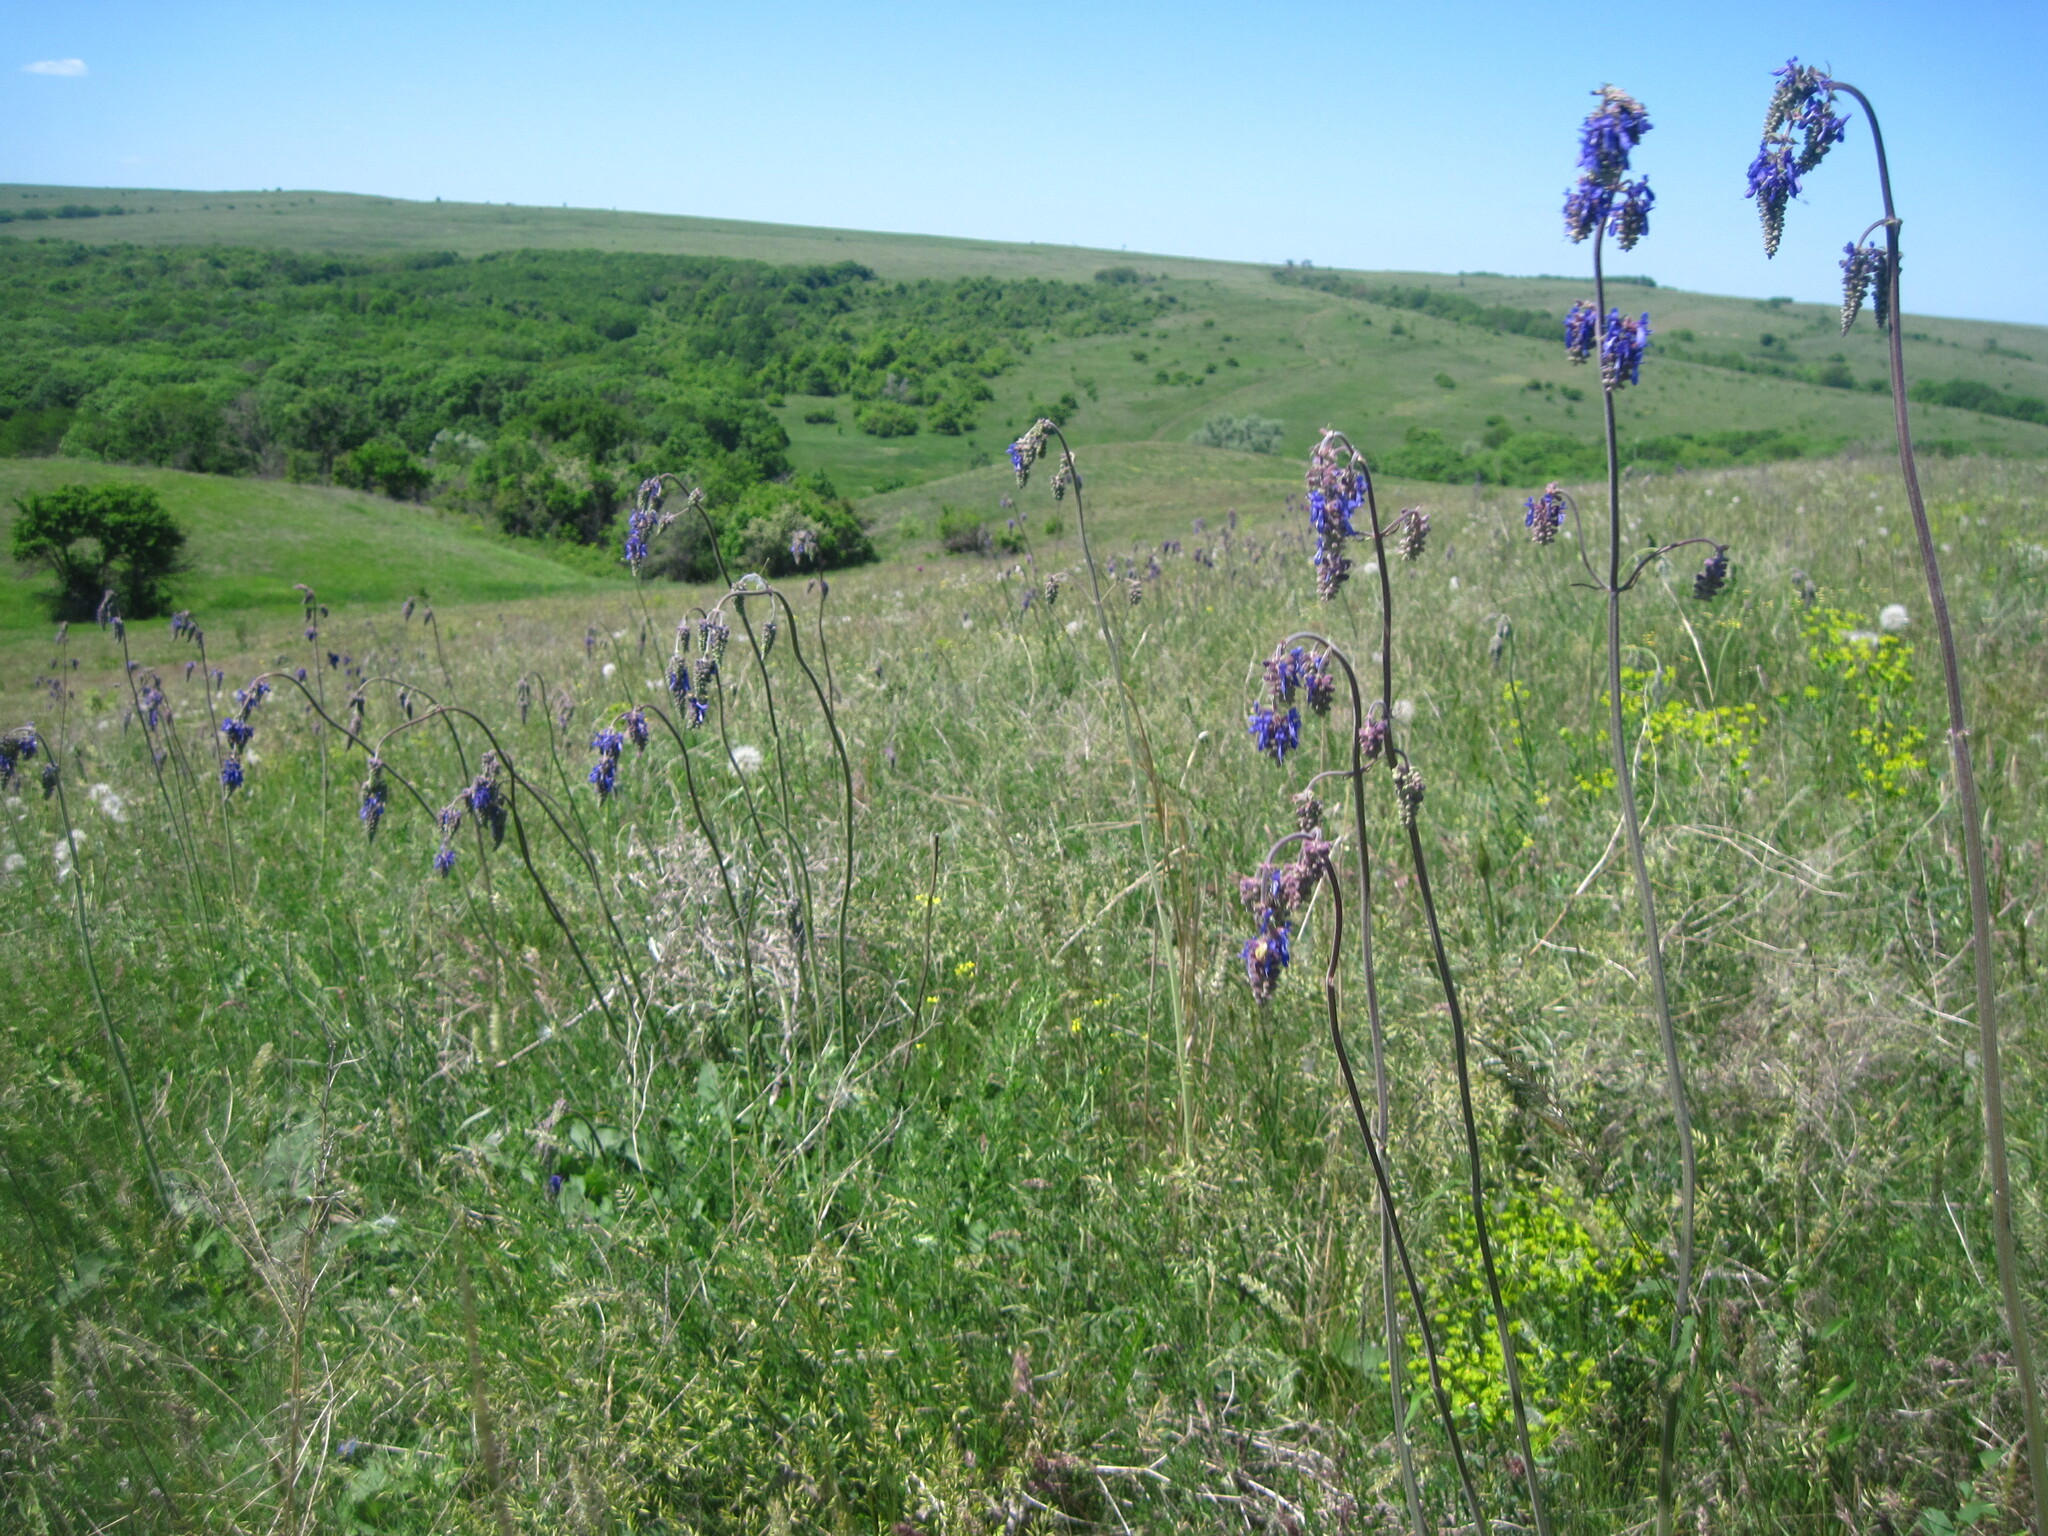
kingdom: Plantae
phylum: Tracheophyta
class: Magnoliopsida
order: Lamiales
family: Lamiaceae
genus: Salvia
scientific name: Salvia nutans
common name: Nodding sage
